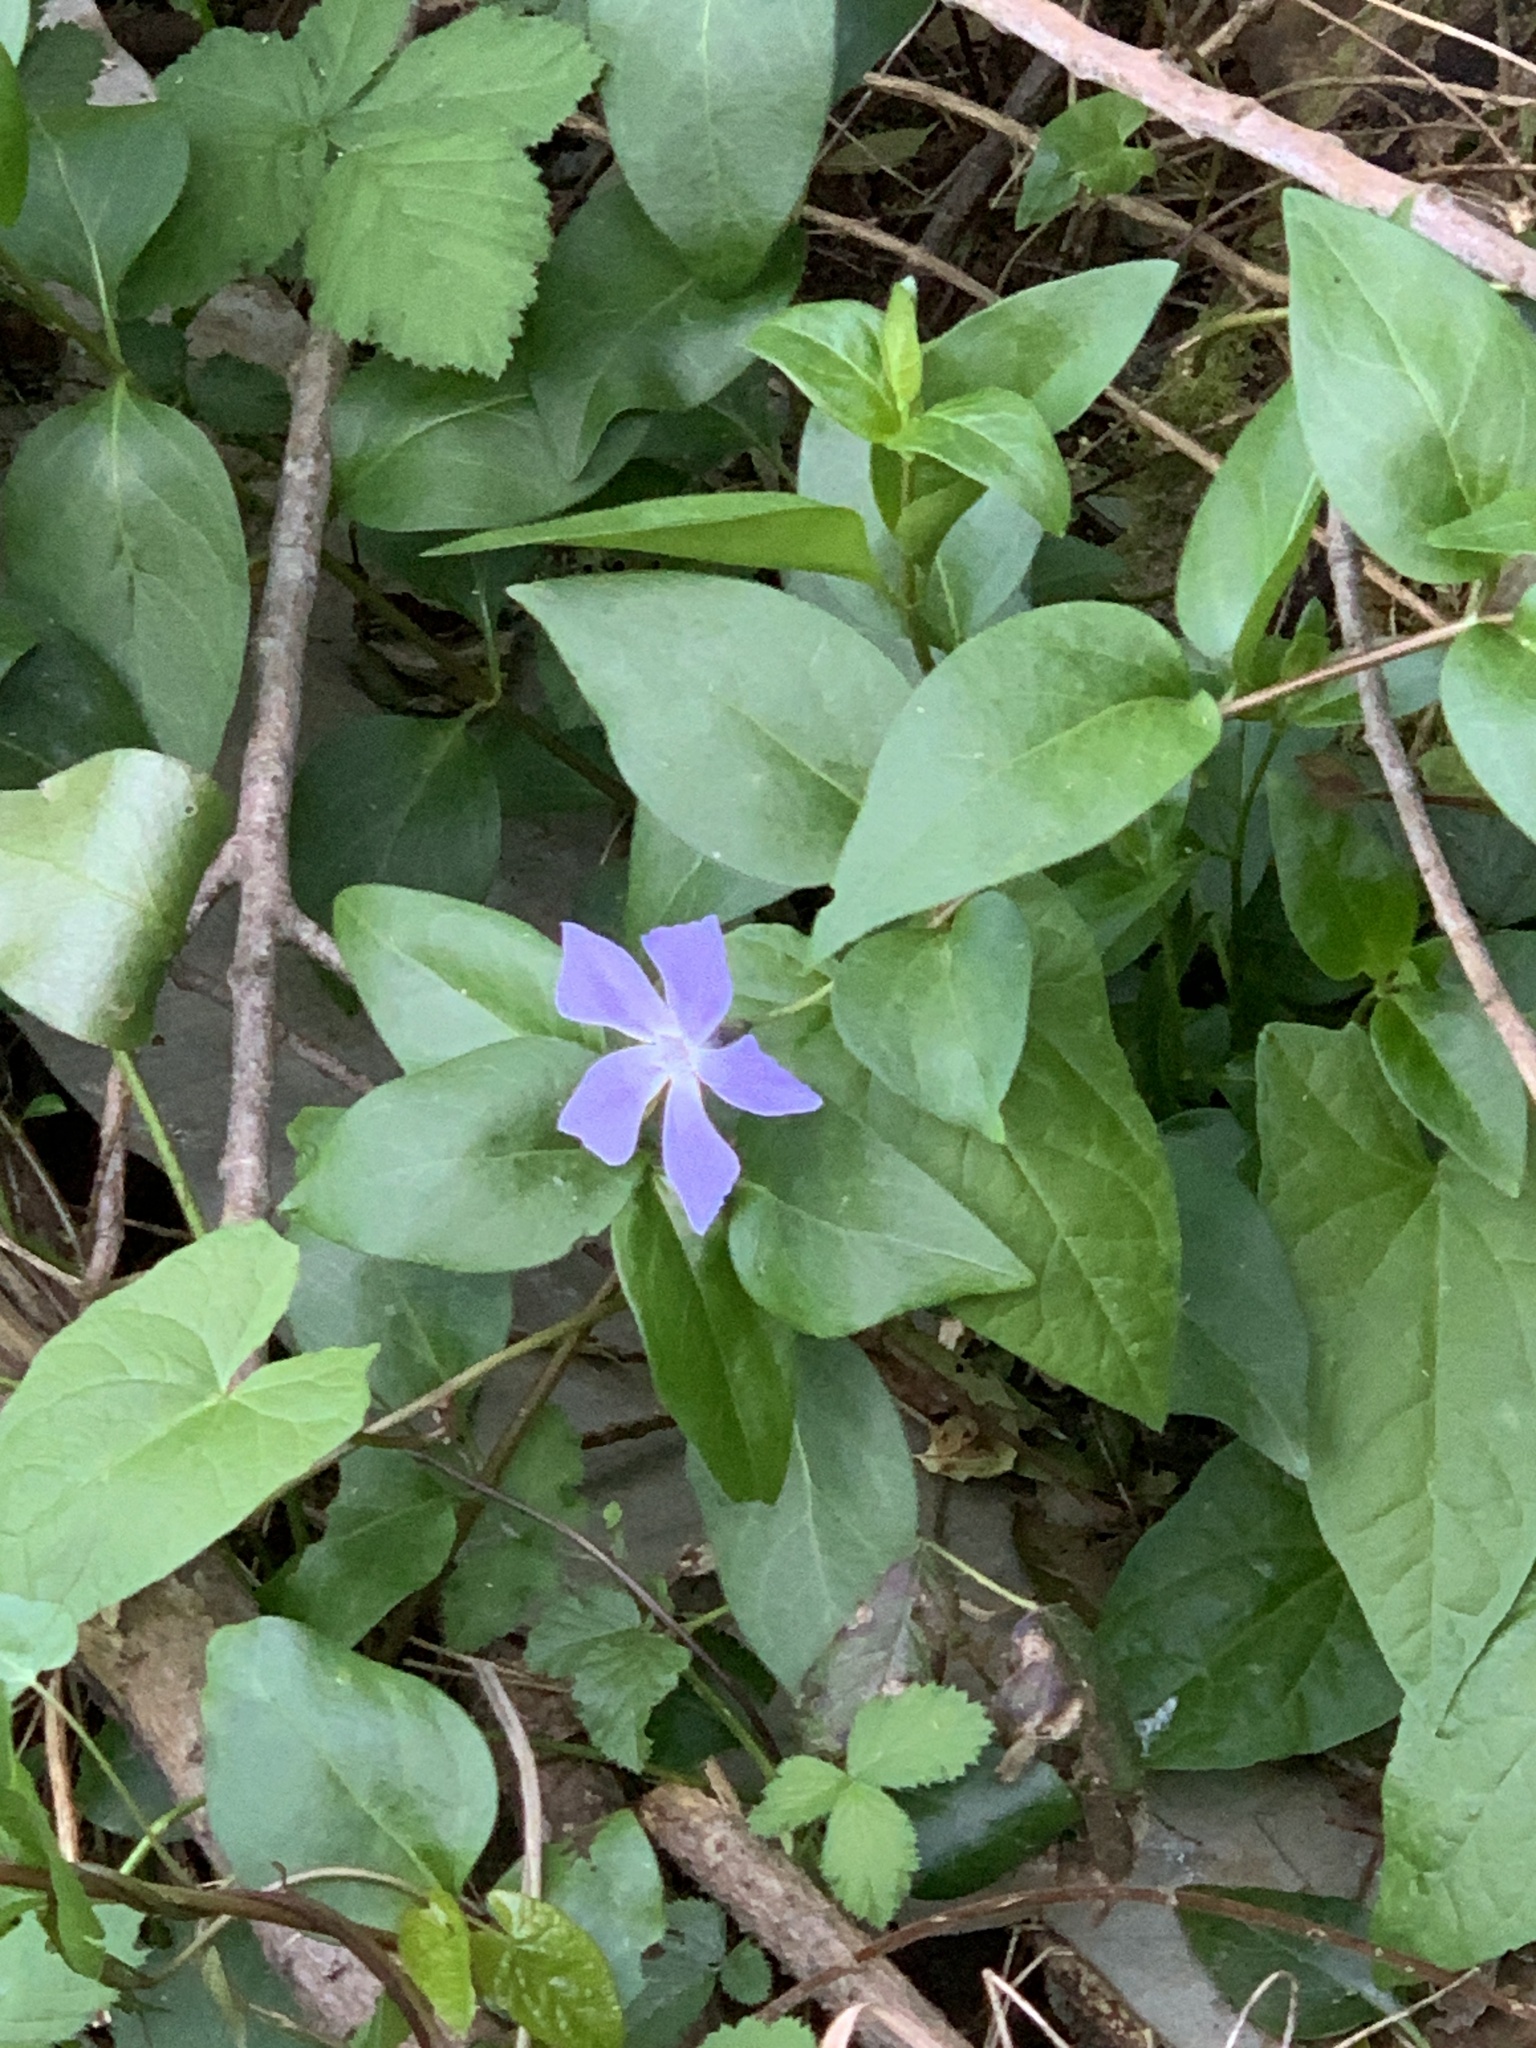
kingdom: Plantae
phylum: Tracheophyta
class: Magnoliopsida
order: Gentianales
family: Apocynaceae
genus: Vinca
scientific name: Vinca major
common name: Greater periwinkle
